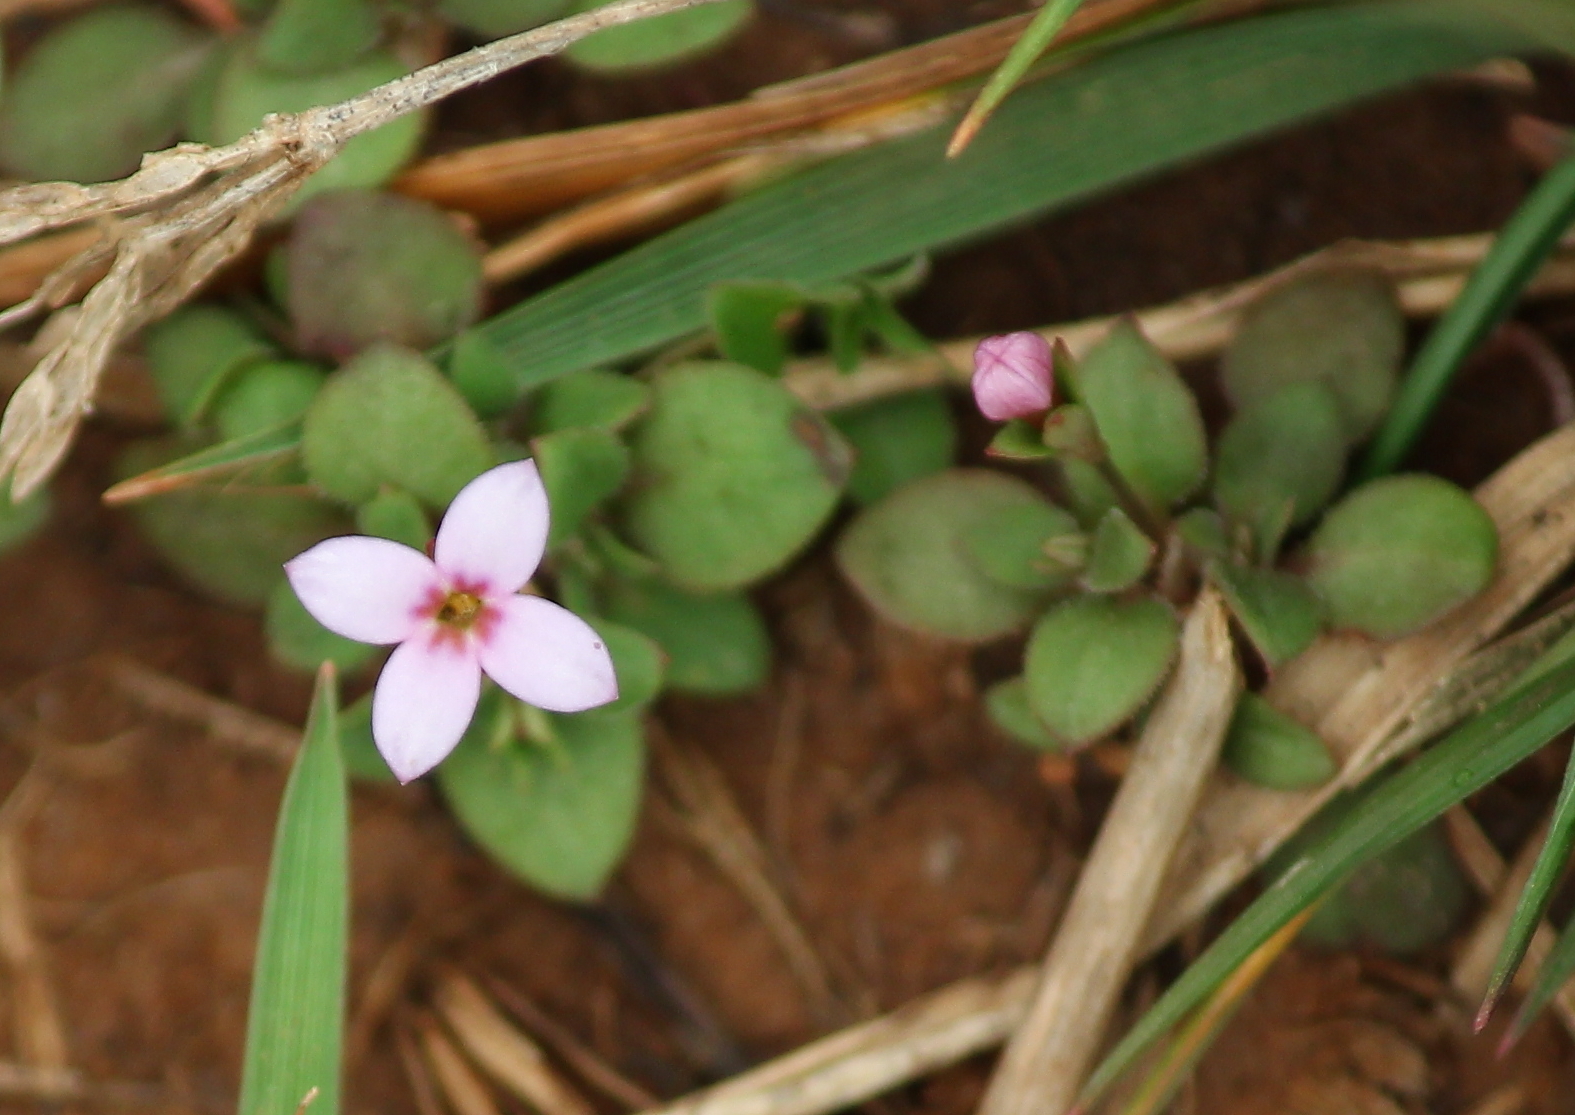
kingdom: Plantae
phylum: Tracheophyta
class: Magnoliopsida
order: Gentianales
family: Rubiaceae
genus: Houstonia
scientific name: Houstonia pusilla
